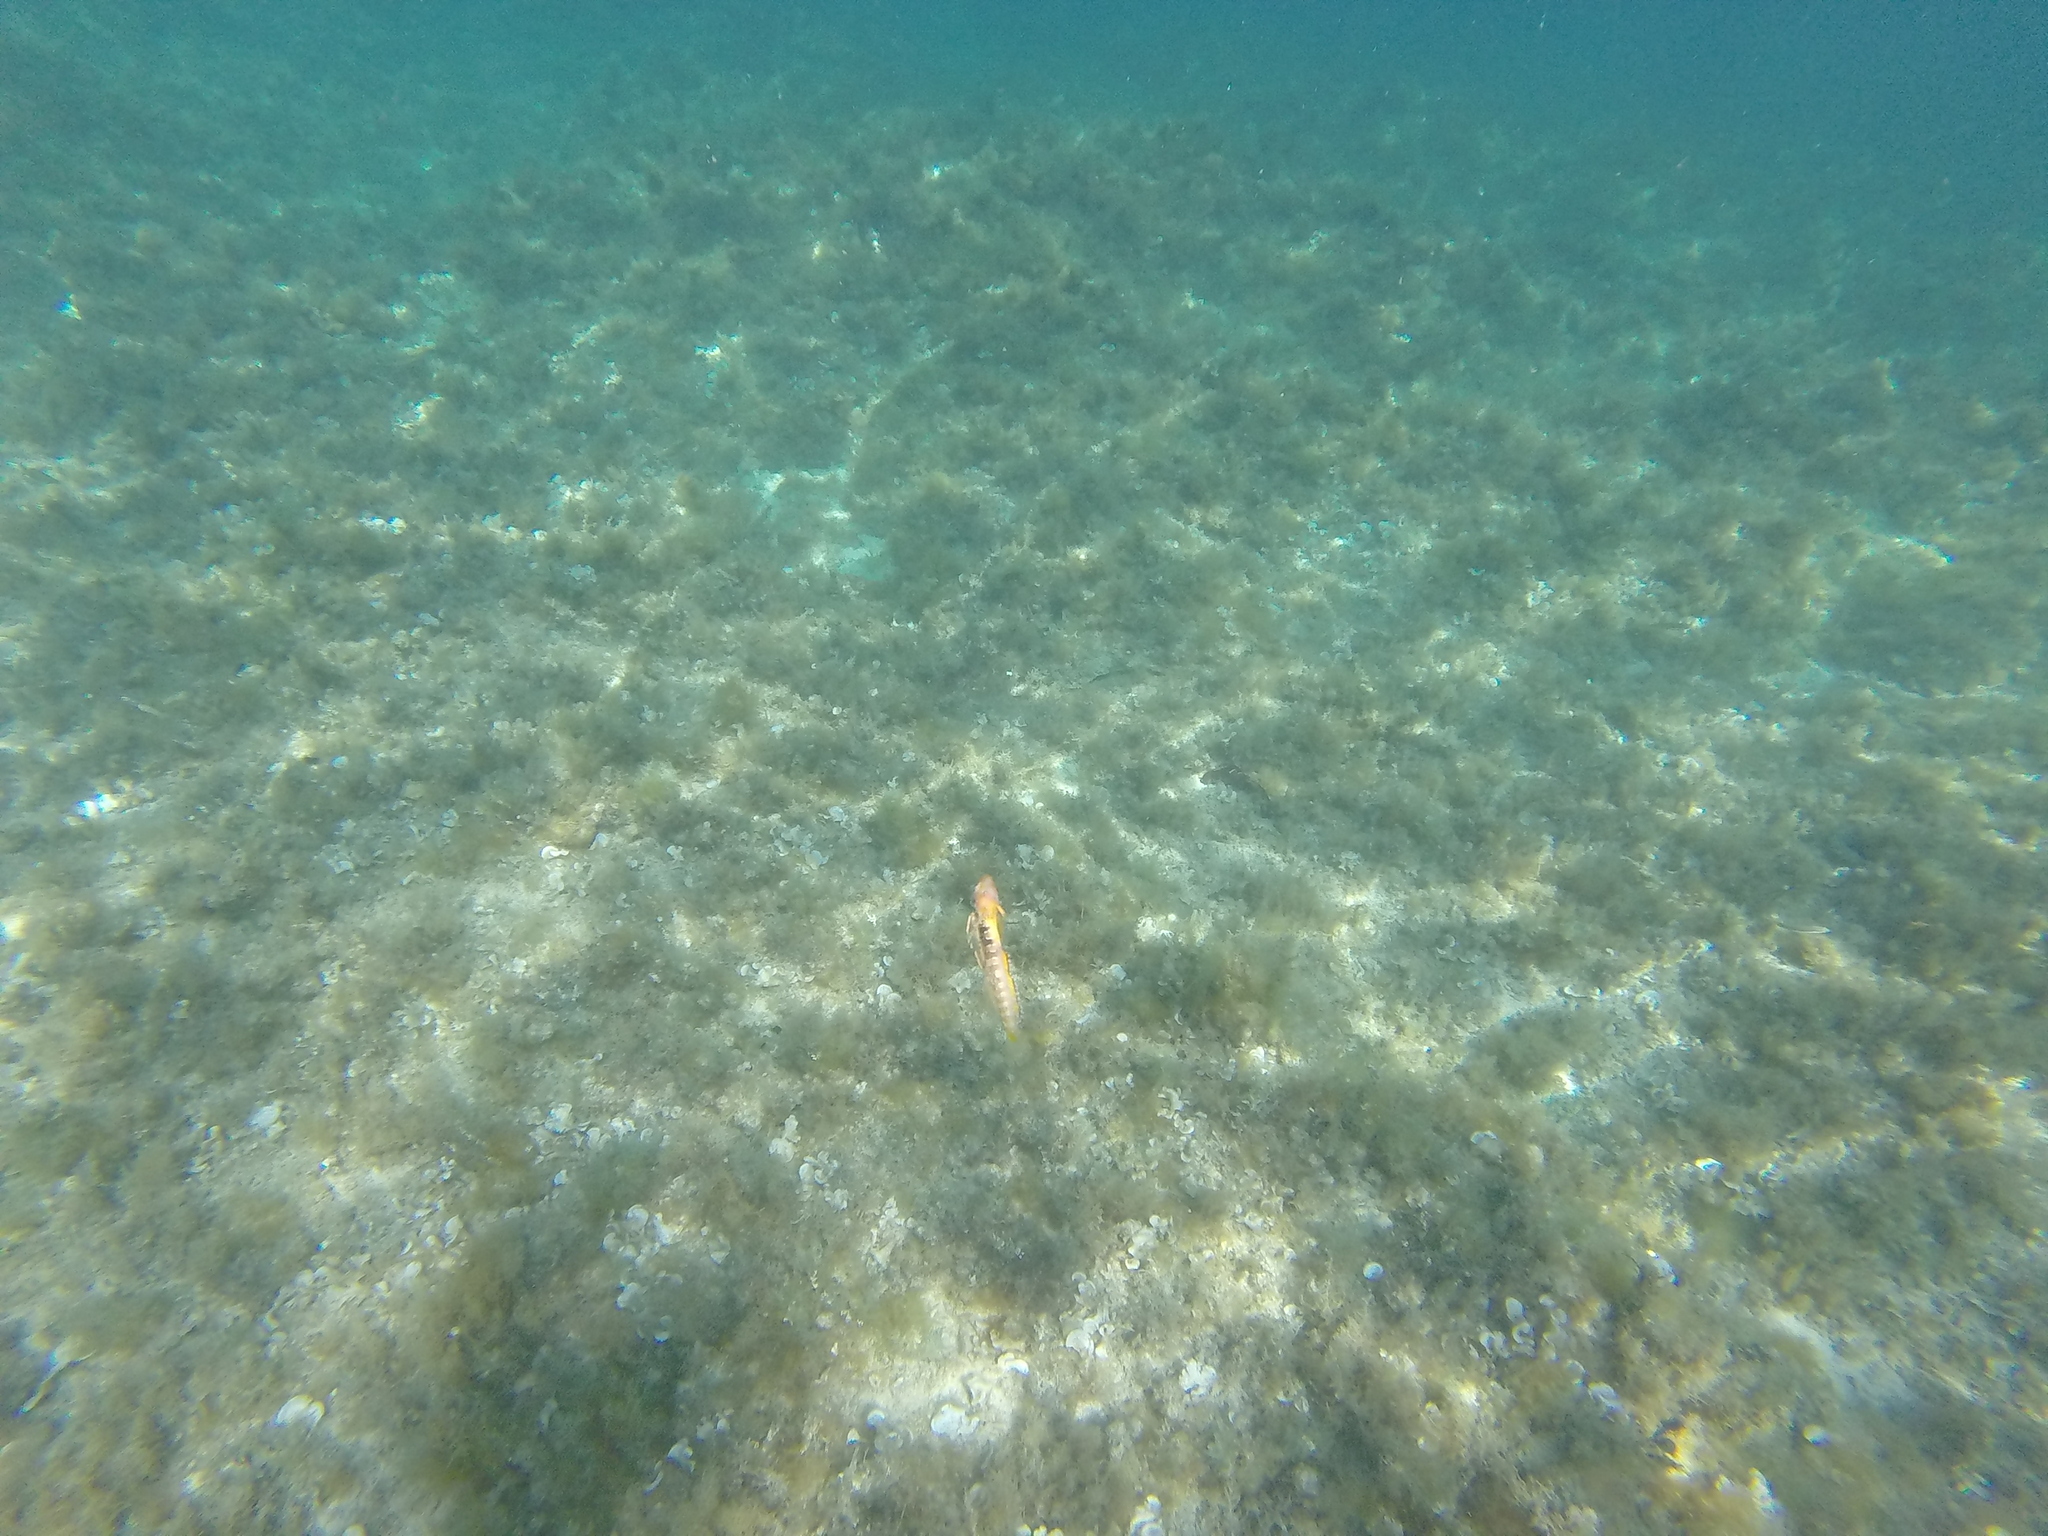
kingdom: Animalia
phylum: Chordata
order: Perciformes
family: Blenniidae
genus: Microlipophrys
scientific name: Microlipophrys dalmatinus
